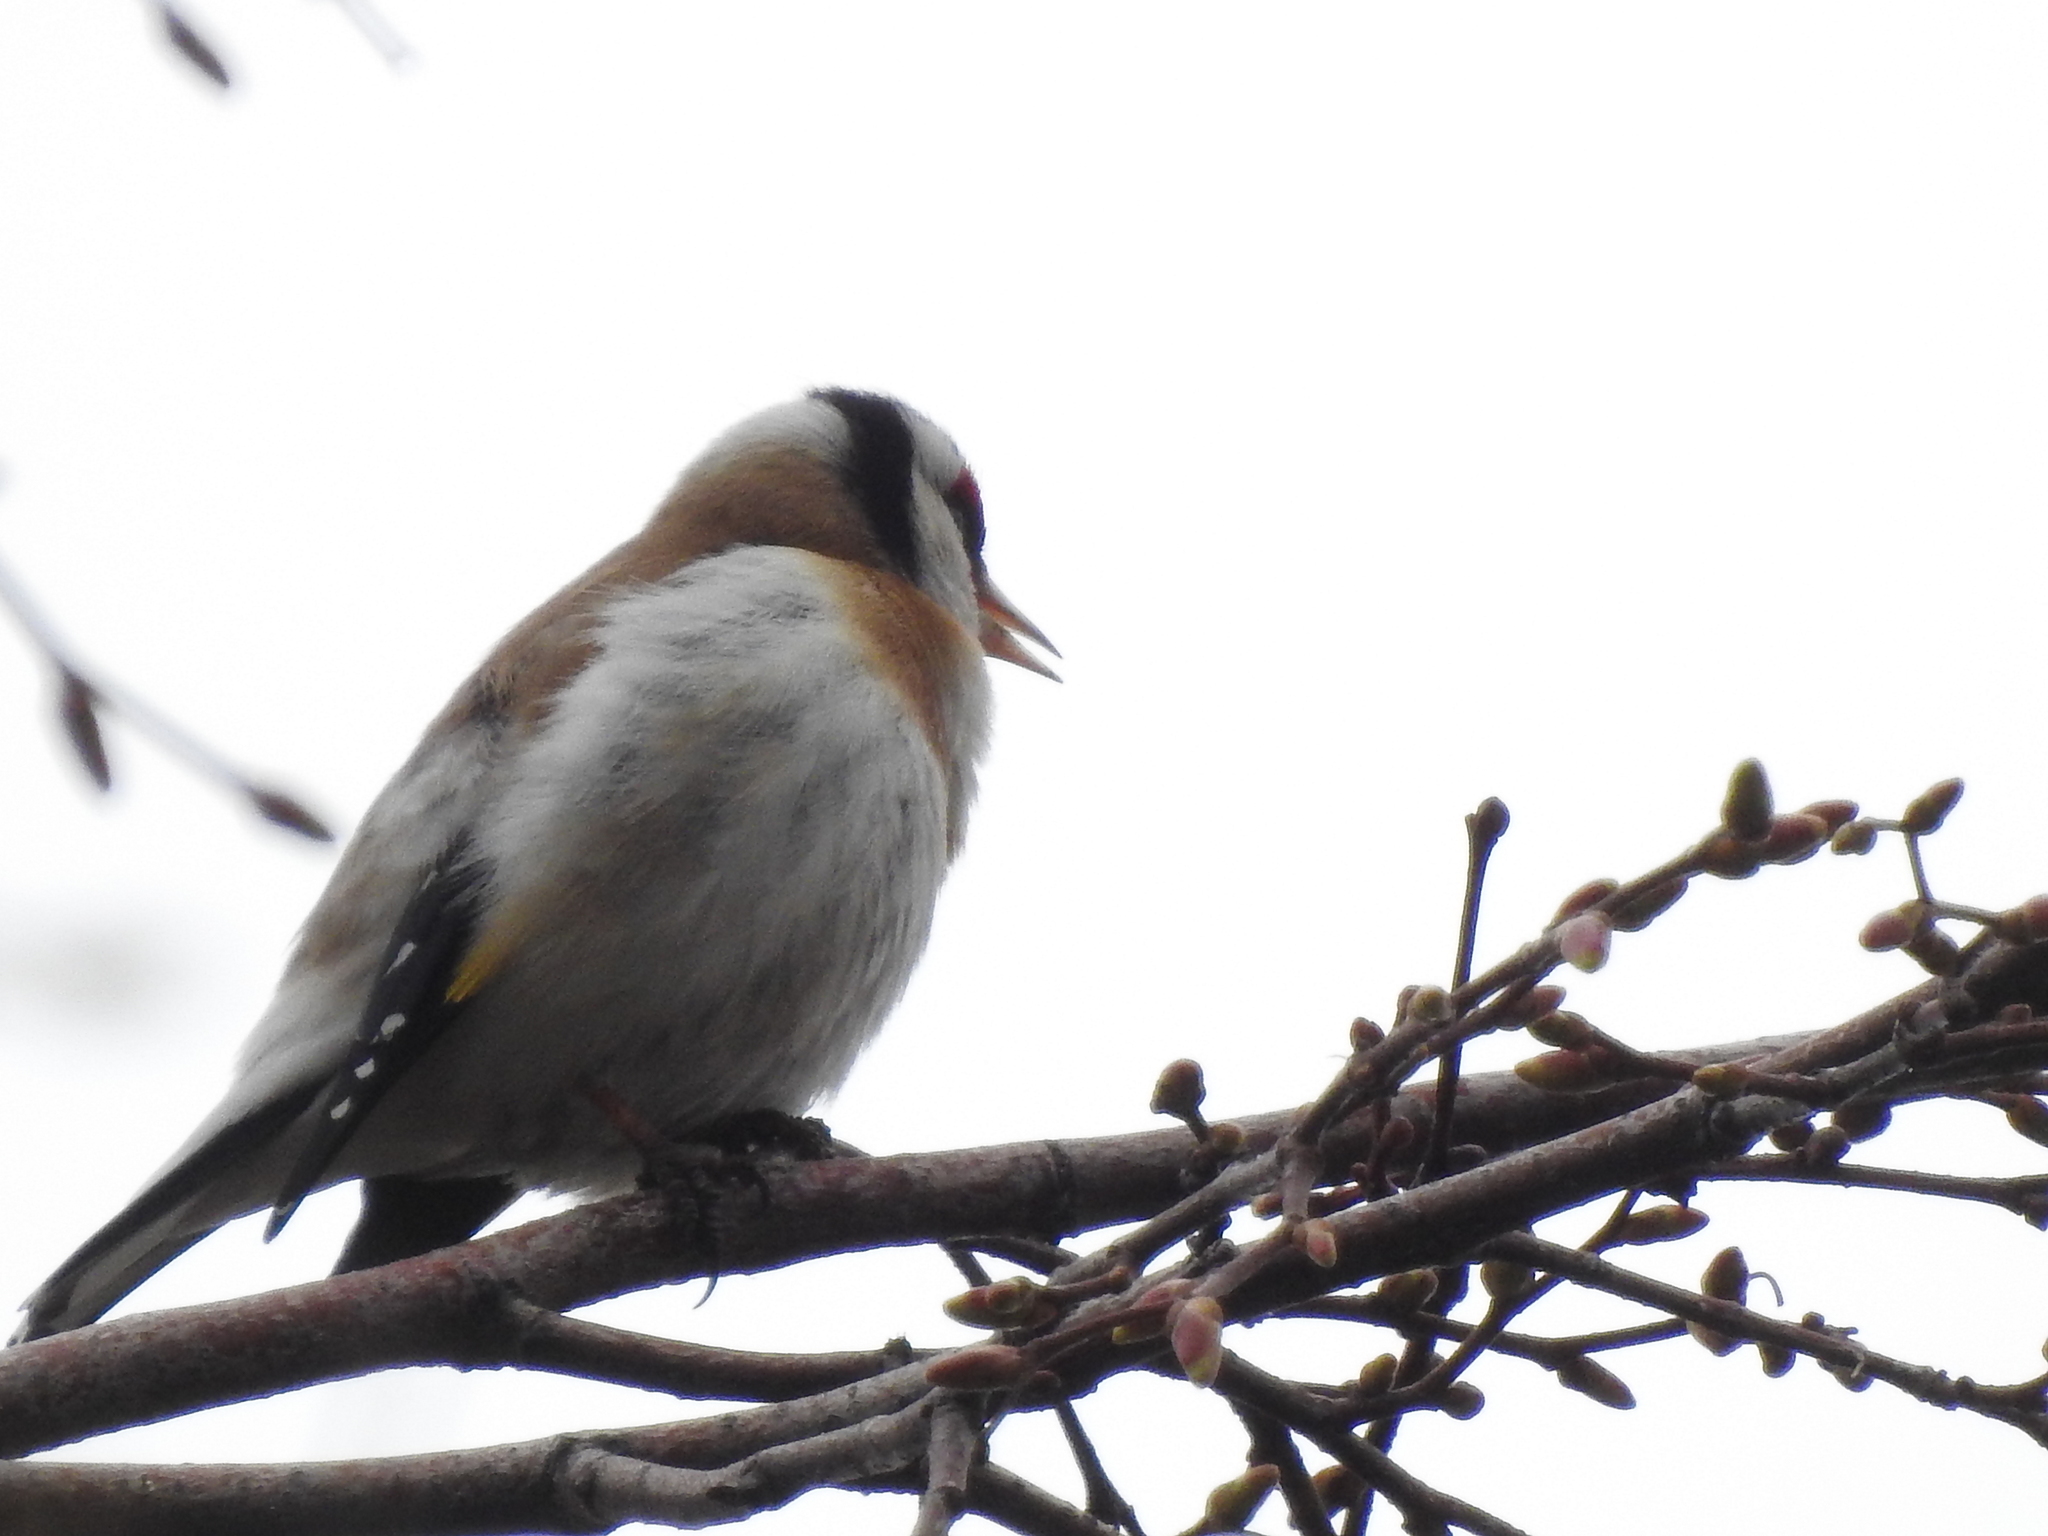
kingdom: Animalia
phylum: Chordata
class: Aves
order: Passeriformes
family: Fringillidae
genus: Carduelis
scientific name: Carduelis carduelis
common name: European goldfinch
